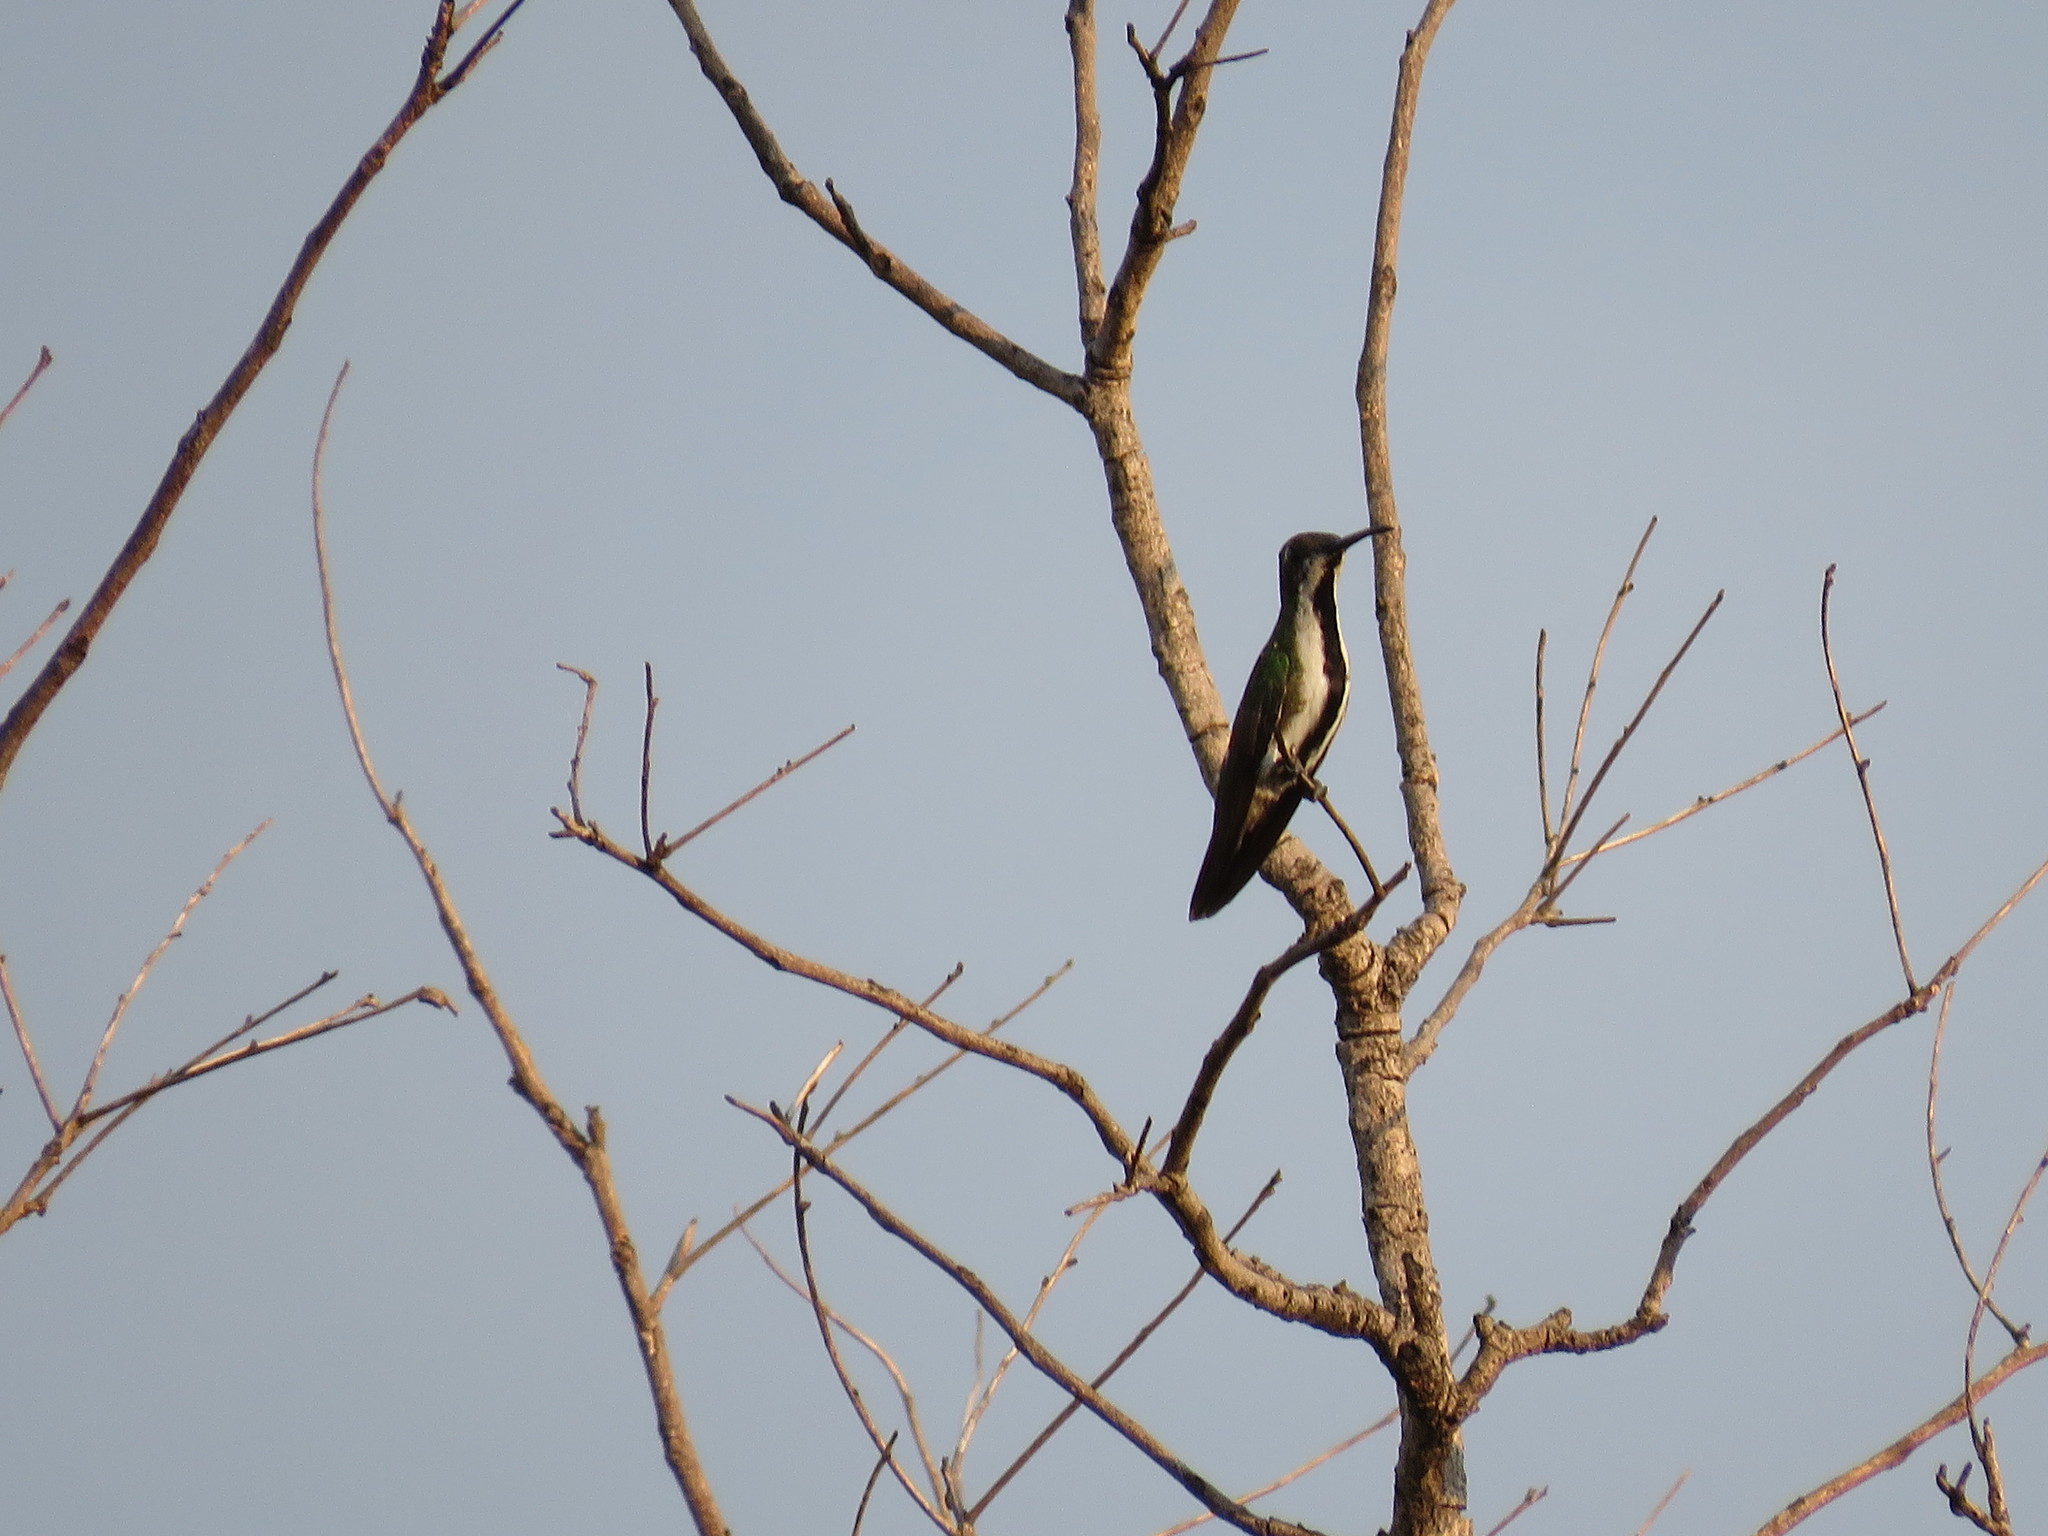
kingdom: Animalia
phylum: Chordata
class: Aves
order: Apodiformes
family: Trochilidae
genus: Anthracothorax
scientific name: Anthracothorax nigricollis
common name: Black-throated mango
